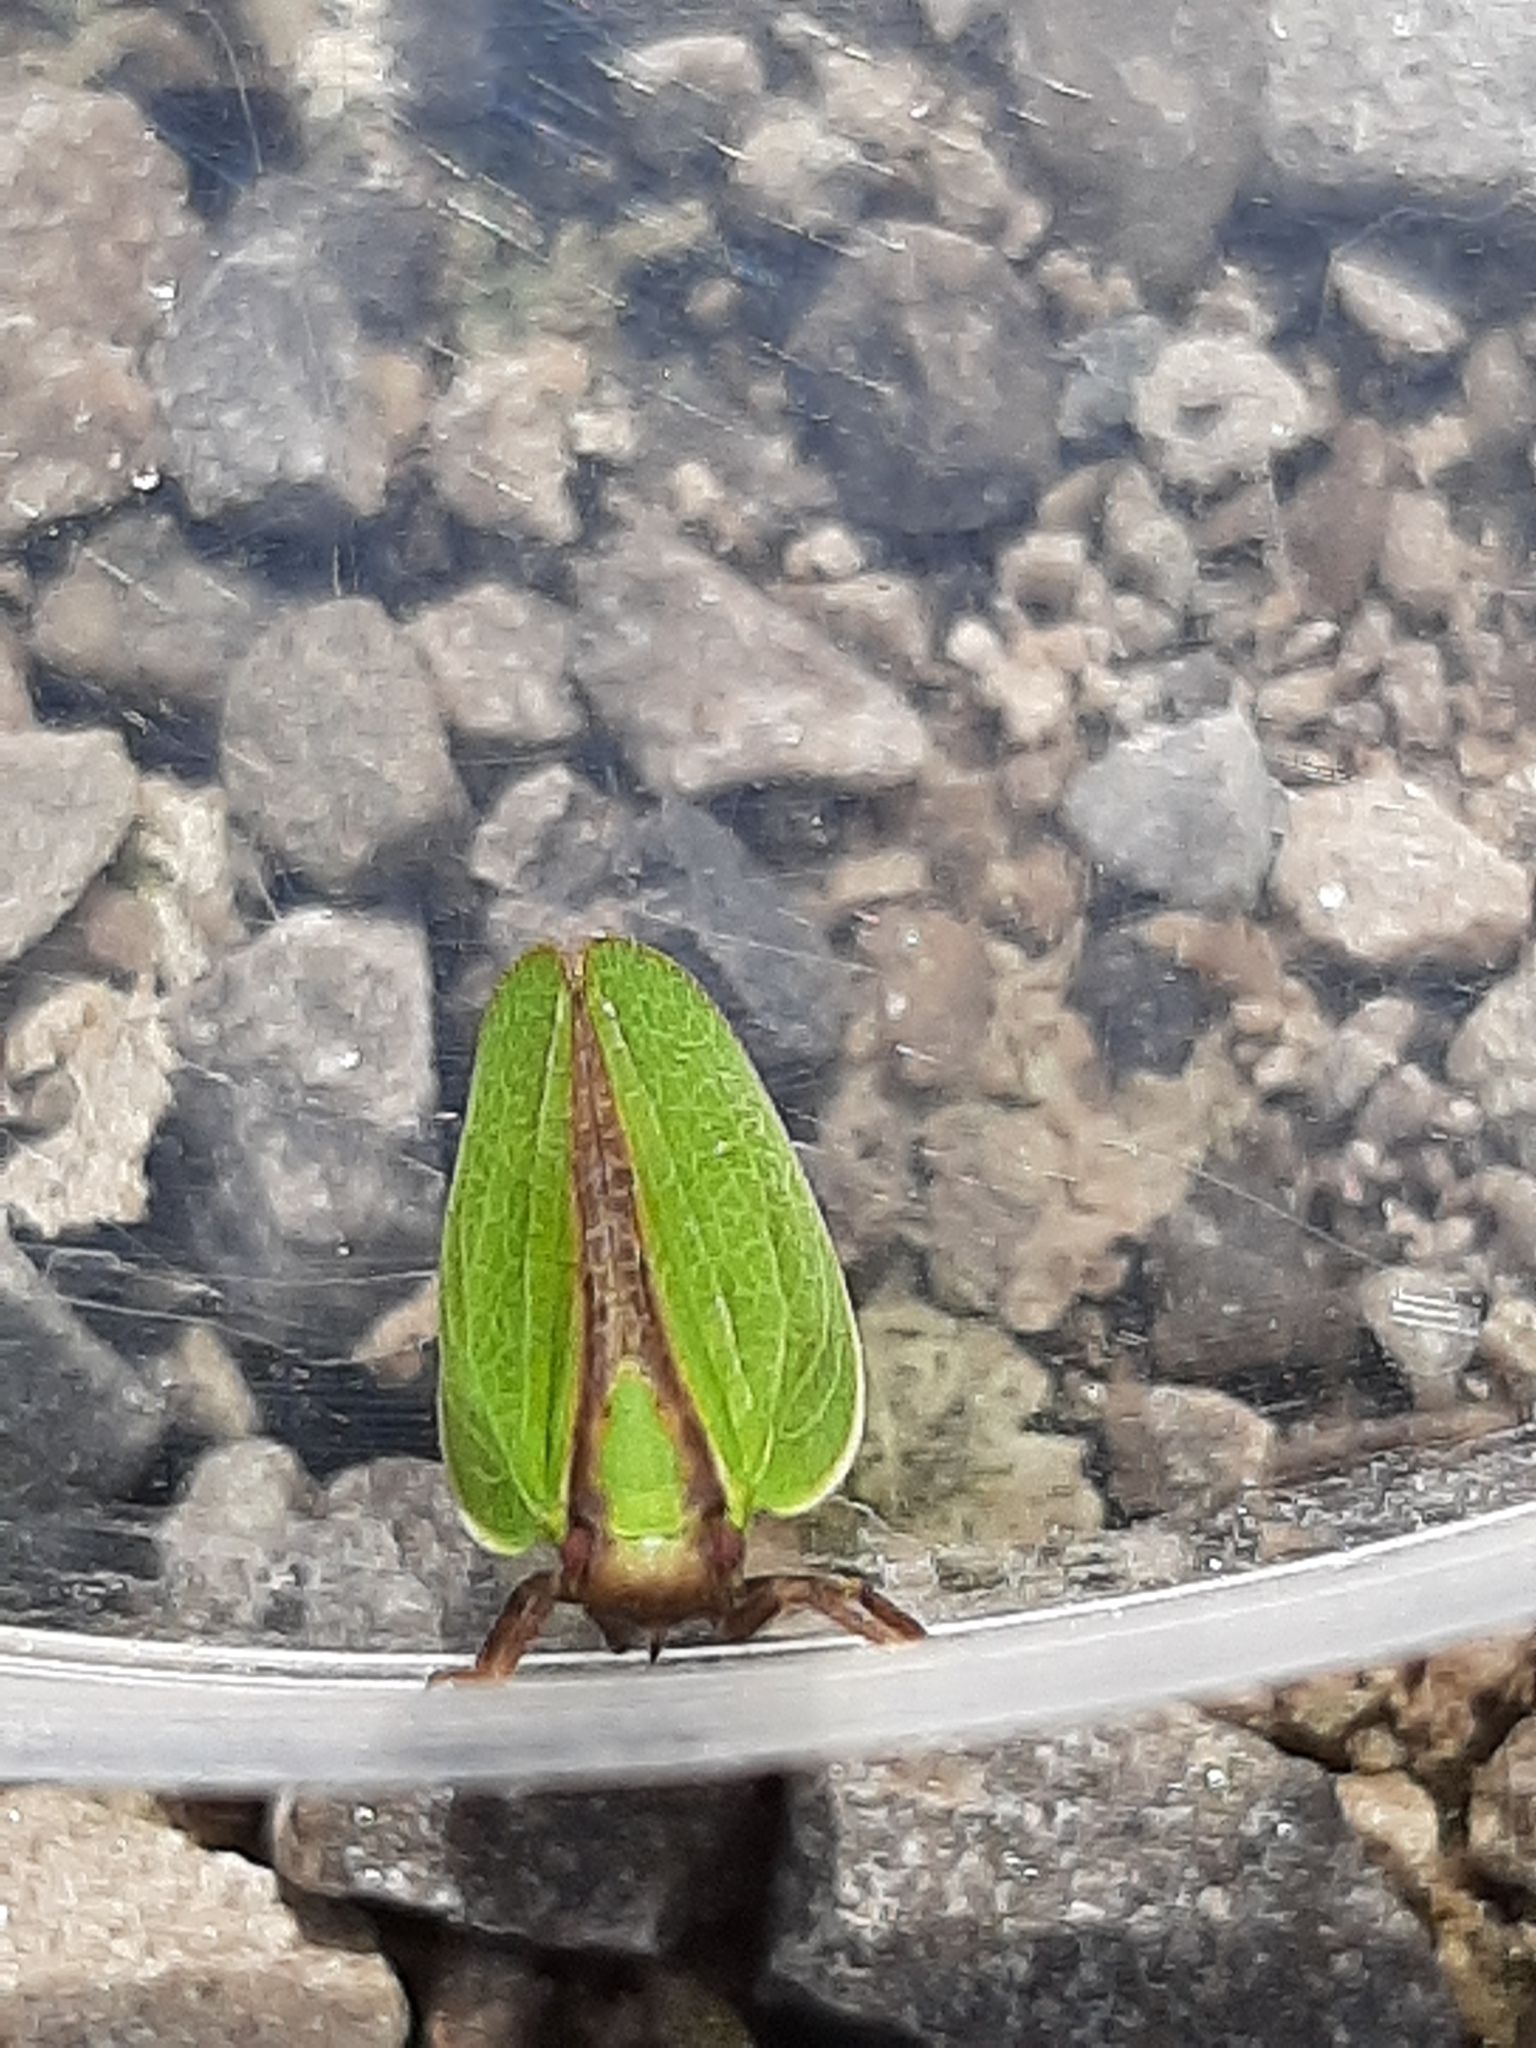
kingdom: Animalia
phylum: Arthropoda
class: Insecta
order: Hemiptera
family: Acanaloniidae
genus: Acanalonia
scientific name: Acanalonia bivittata
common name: Two-striped planthopper
